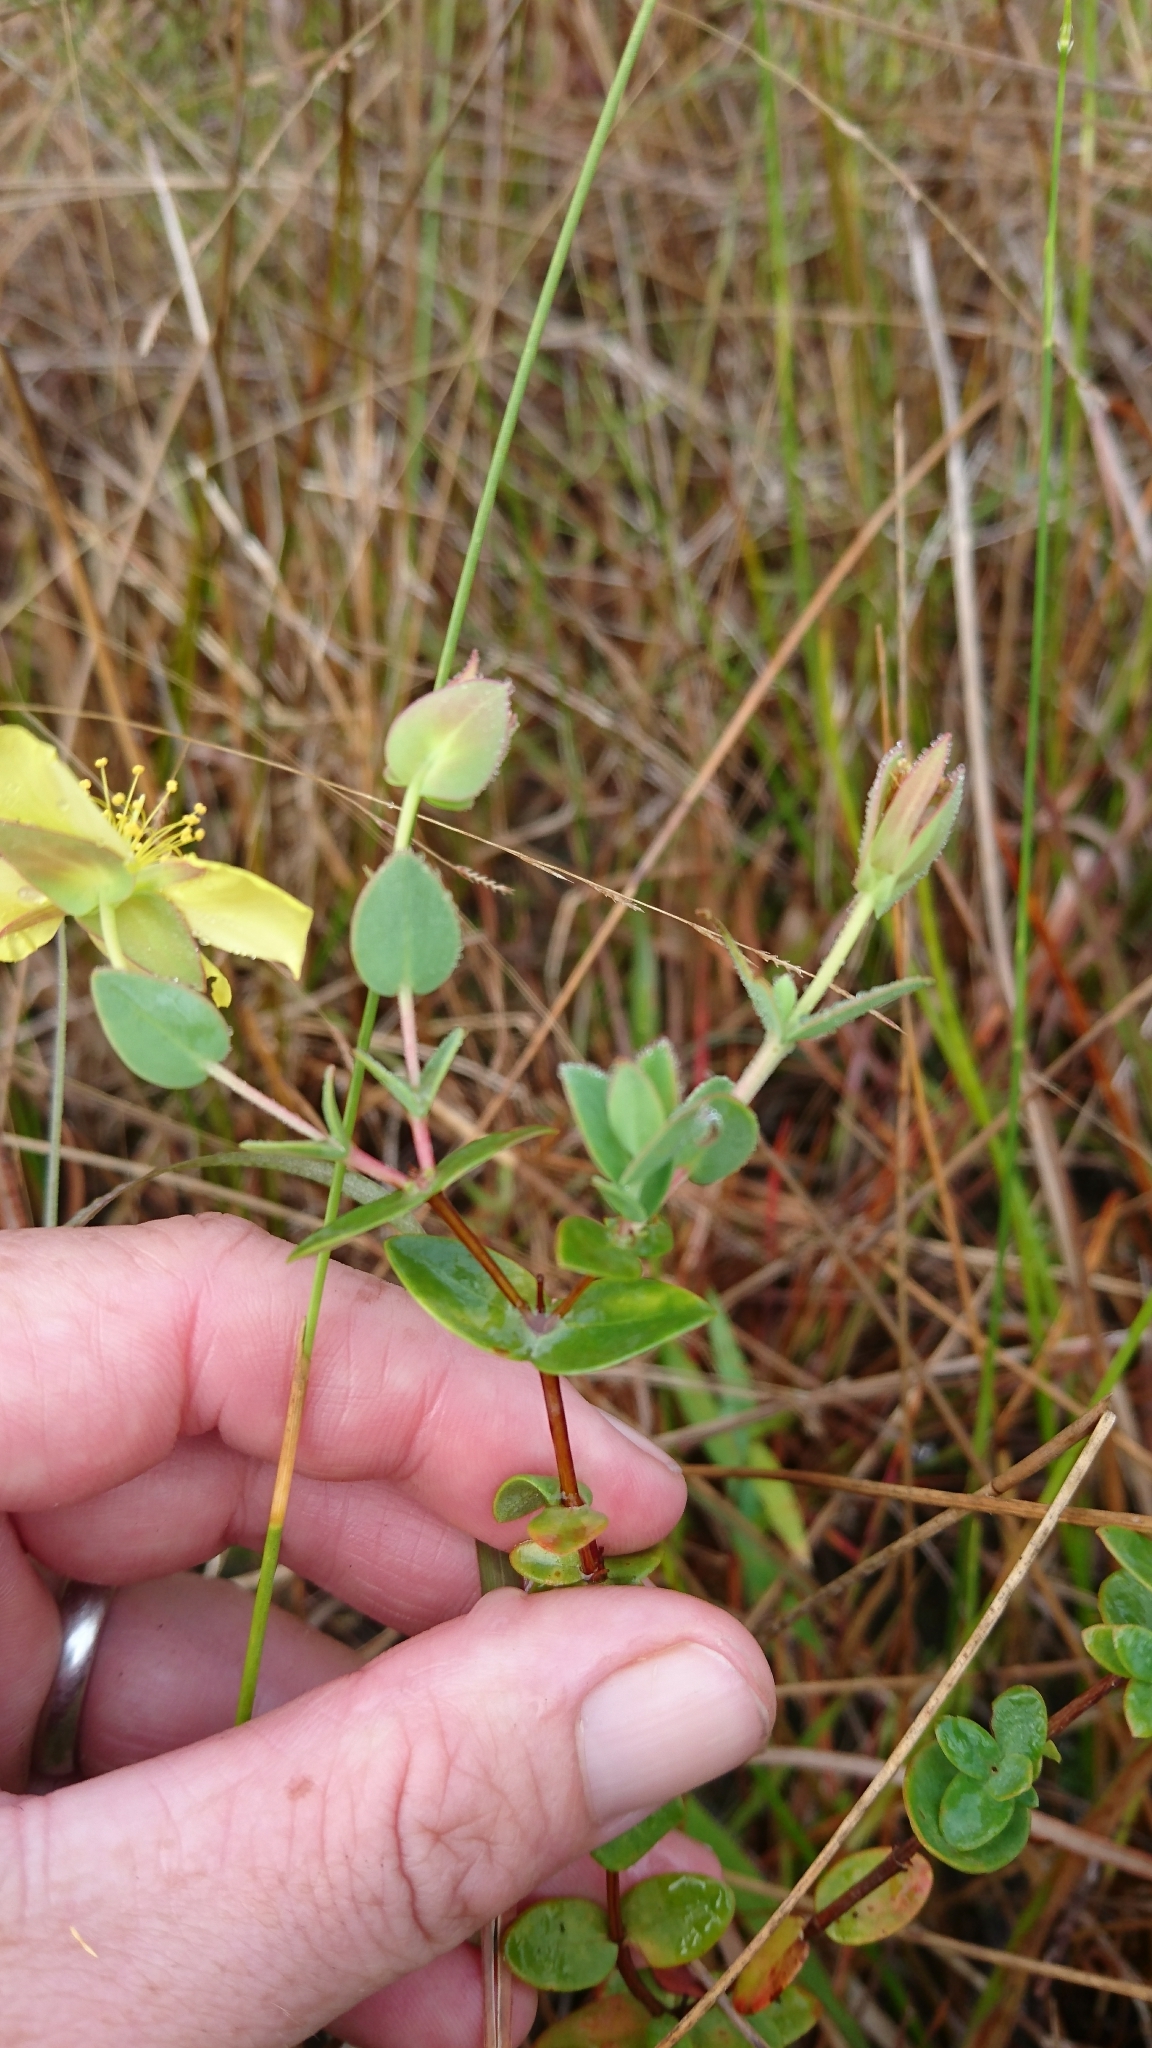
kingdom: Plantae
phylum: Tracheophyta
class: Magnoliopsida
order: Malpighiales
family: Hypericaceae
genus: Hypericum
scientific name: Hypericum tetrapetalum
